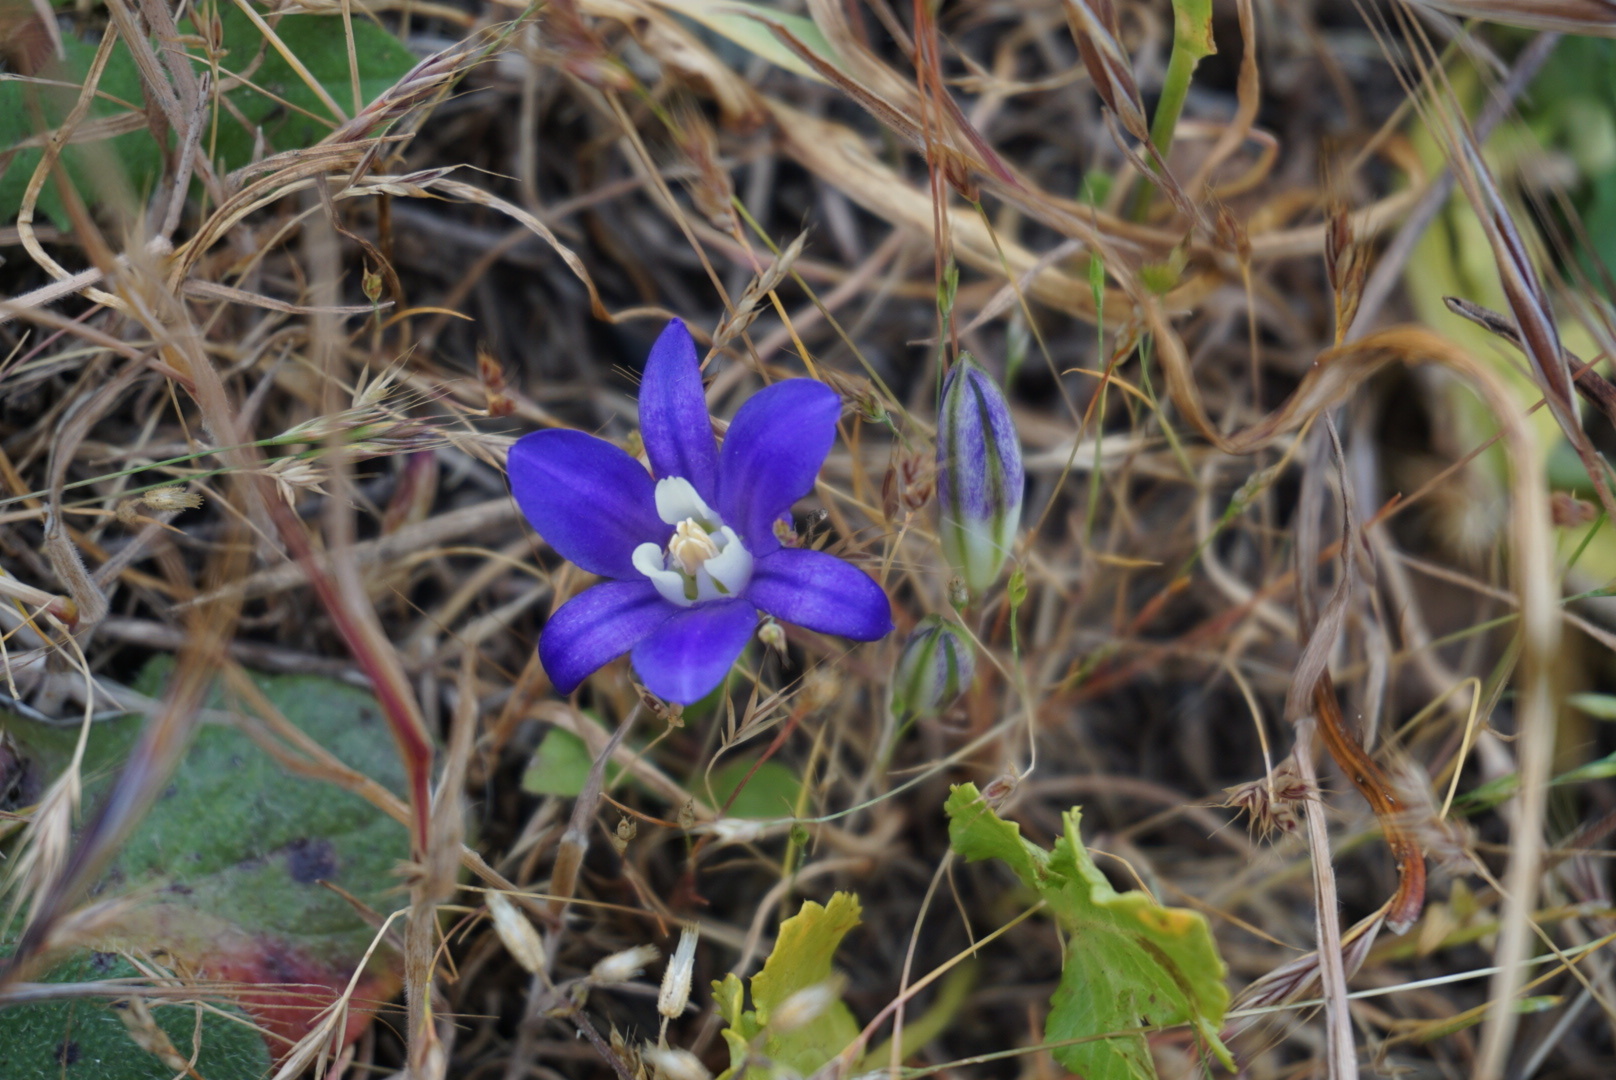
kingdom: Plantae
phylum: Tracheophyta
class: Liliopsida
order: Asparagales
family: Asparagaceae
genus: Brodiaea
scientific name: Brodiaea coronaria
